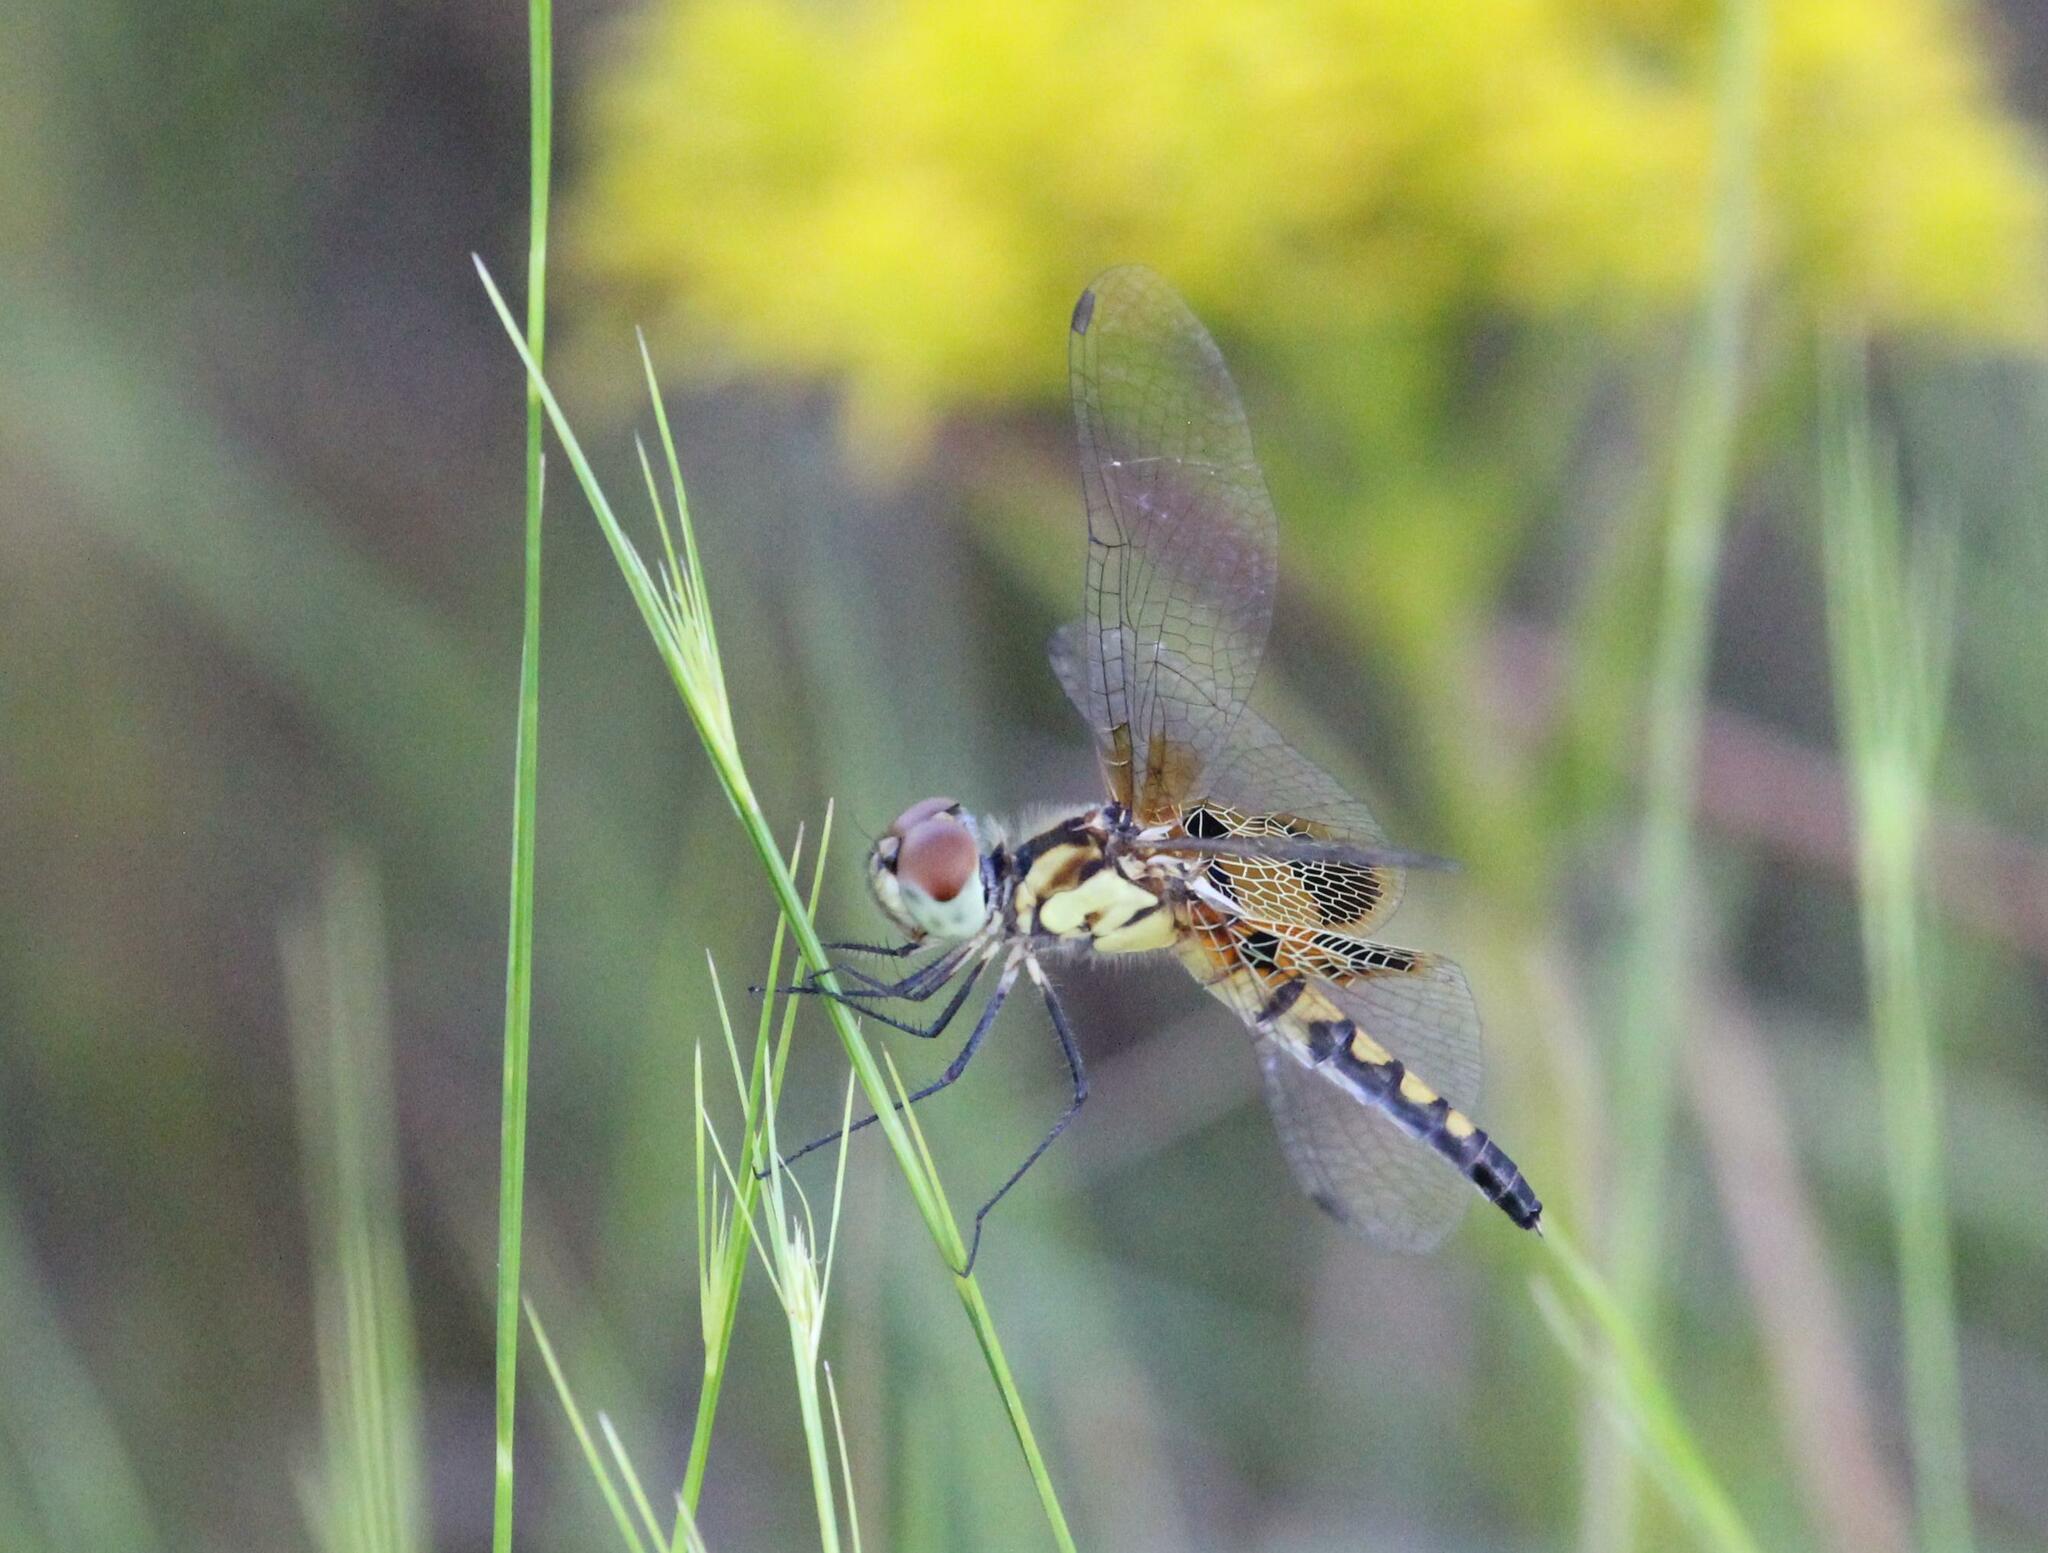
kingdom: Animalia
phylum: Arthropoda
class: Insecta
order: Odonata
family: Libellulidae
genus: Celithemis
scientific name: Celithemis amanda
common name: Amanda's pennant
